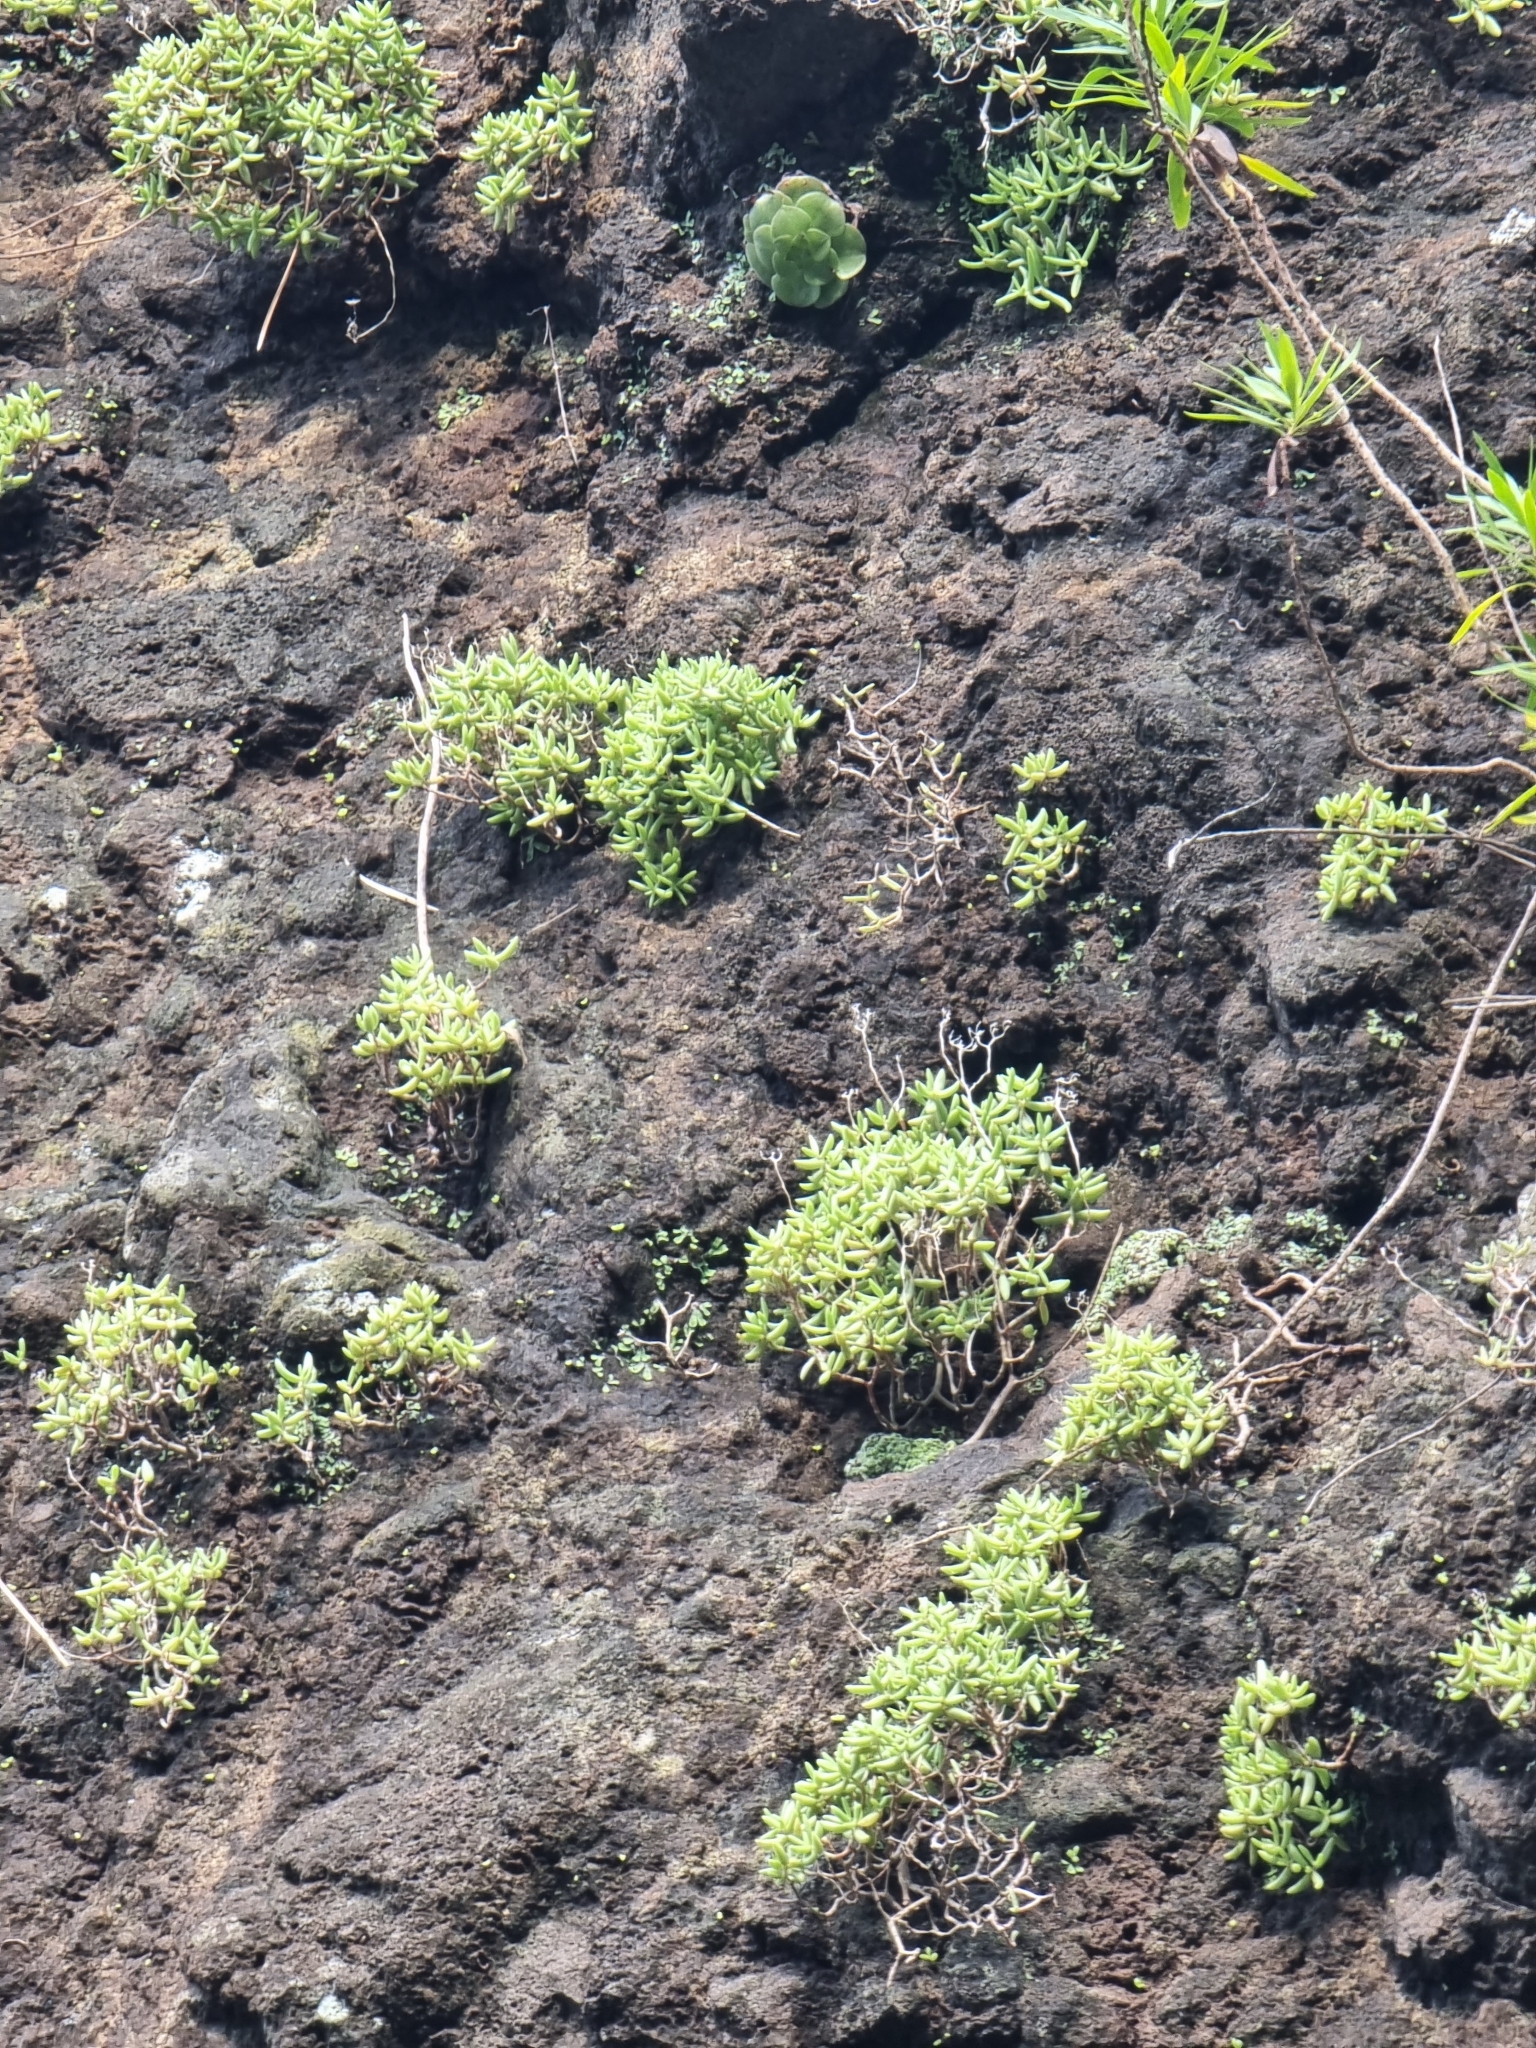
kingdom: Plantae
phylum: Tracheophyta
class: Magnoliopsida
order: Saxifragales
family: Crassulaceae
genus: Sedum
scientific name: Sedum fusiforme
